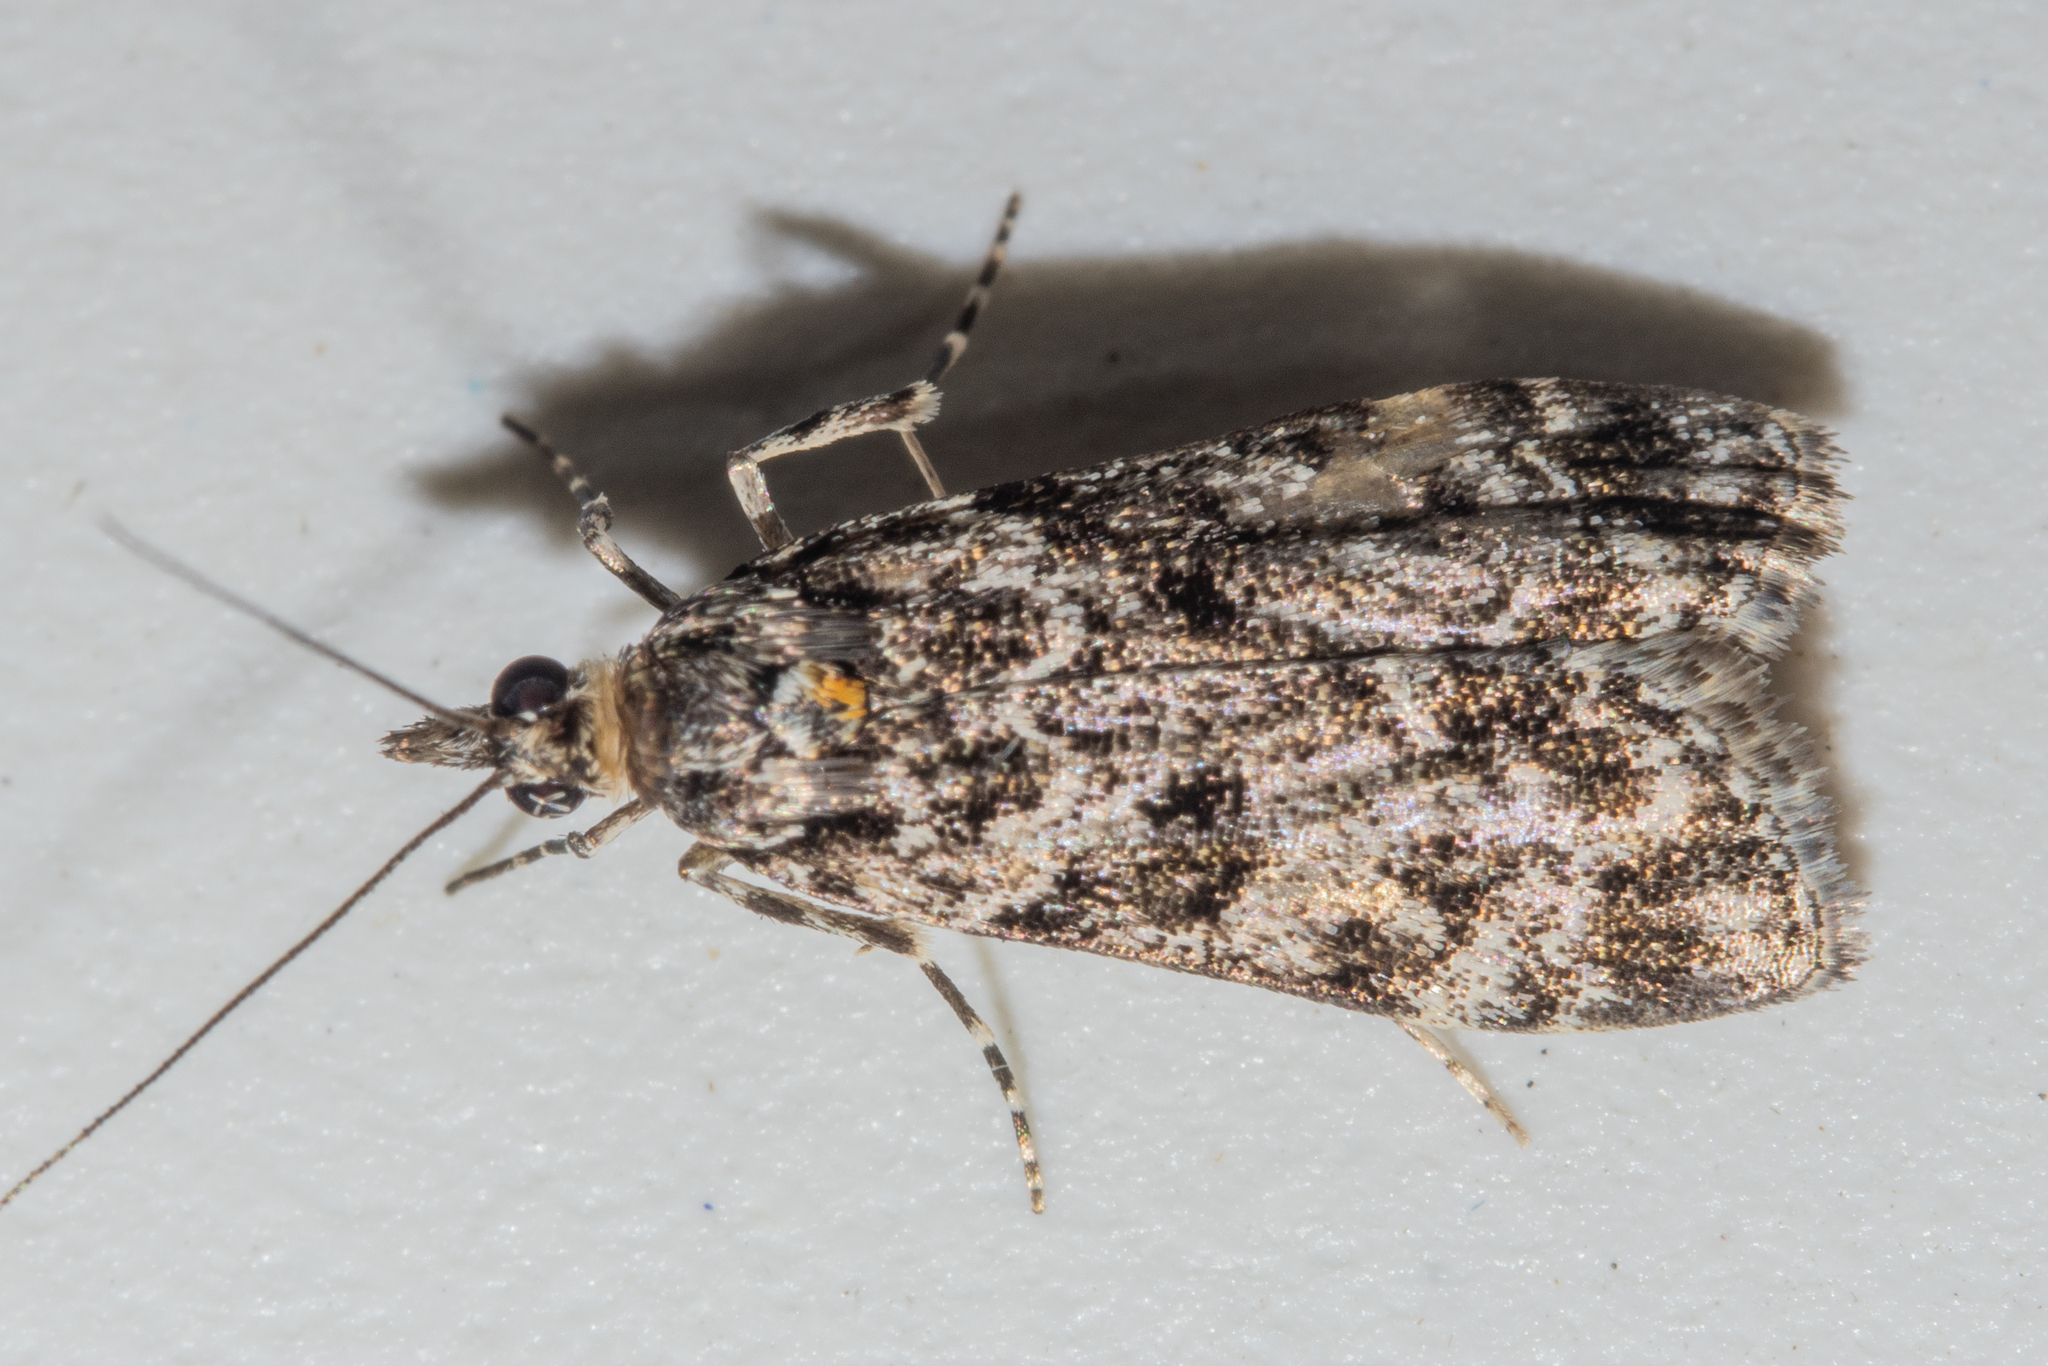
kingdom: Animalia
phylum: Arthropoda
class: Insecta
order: Lepidoptera
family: Crambidae
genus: Eudonia
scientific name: Eudonia
